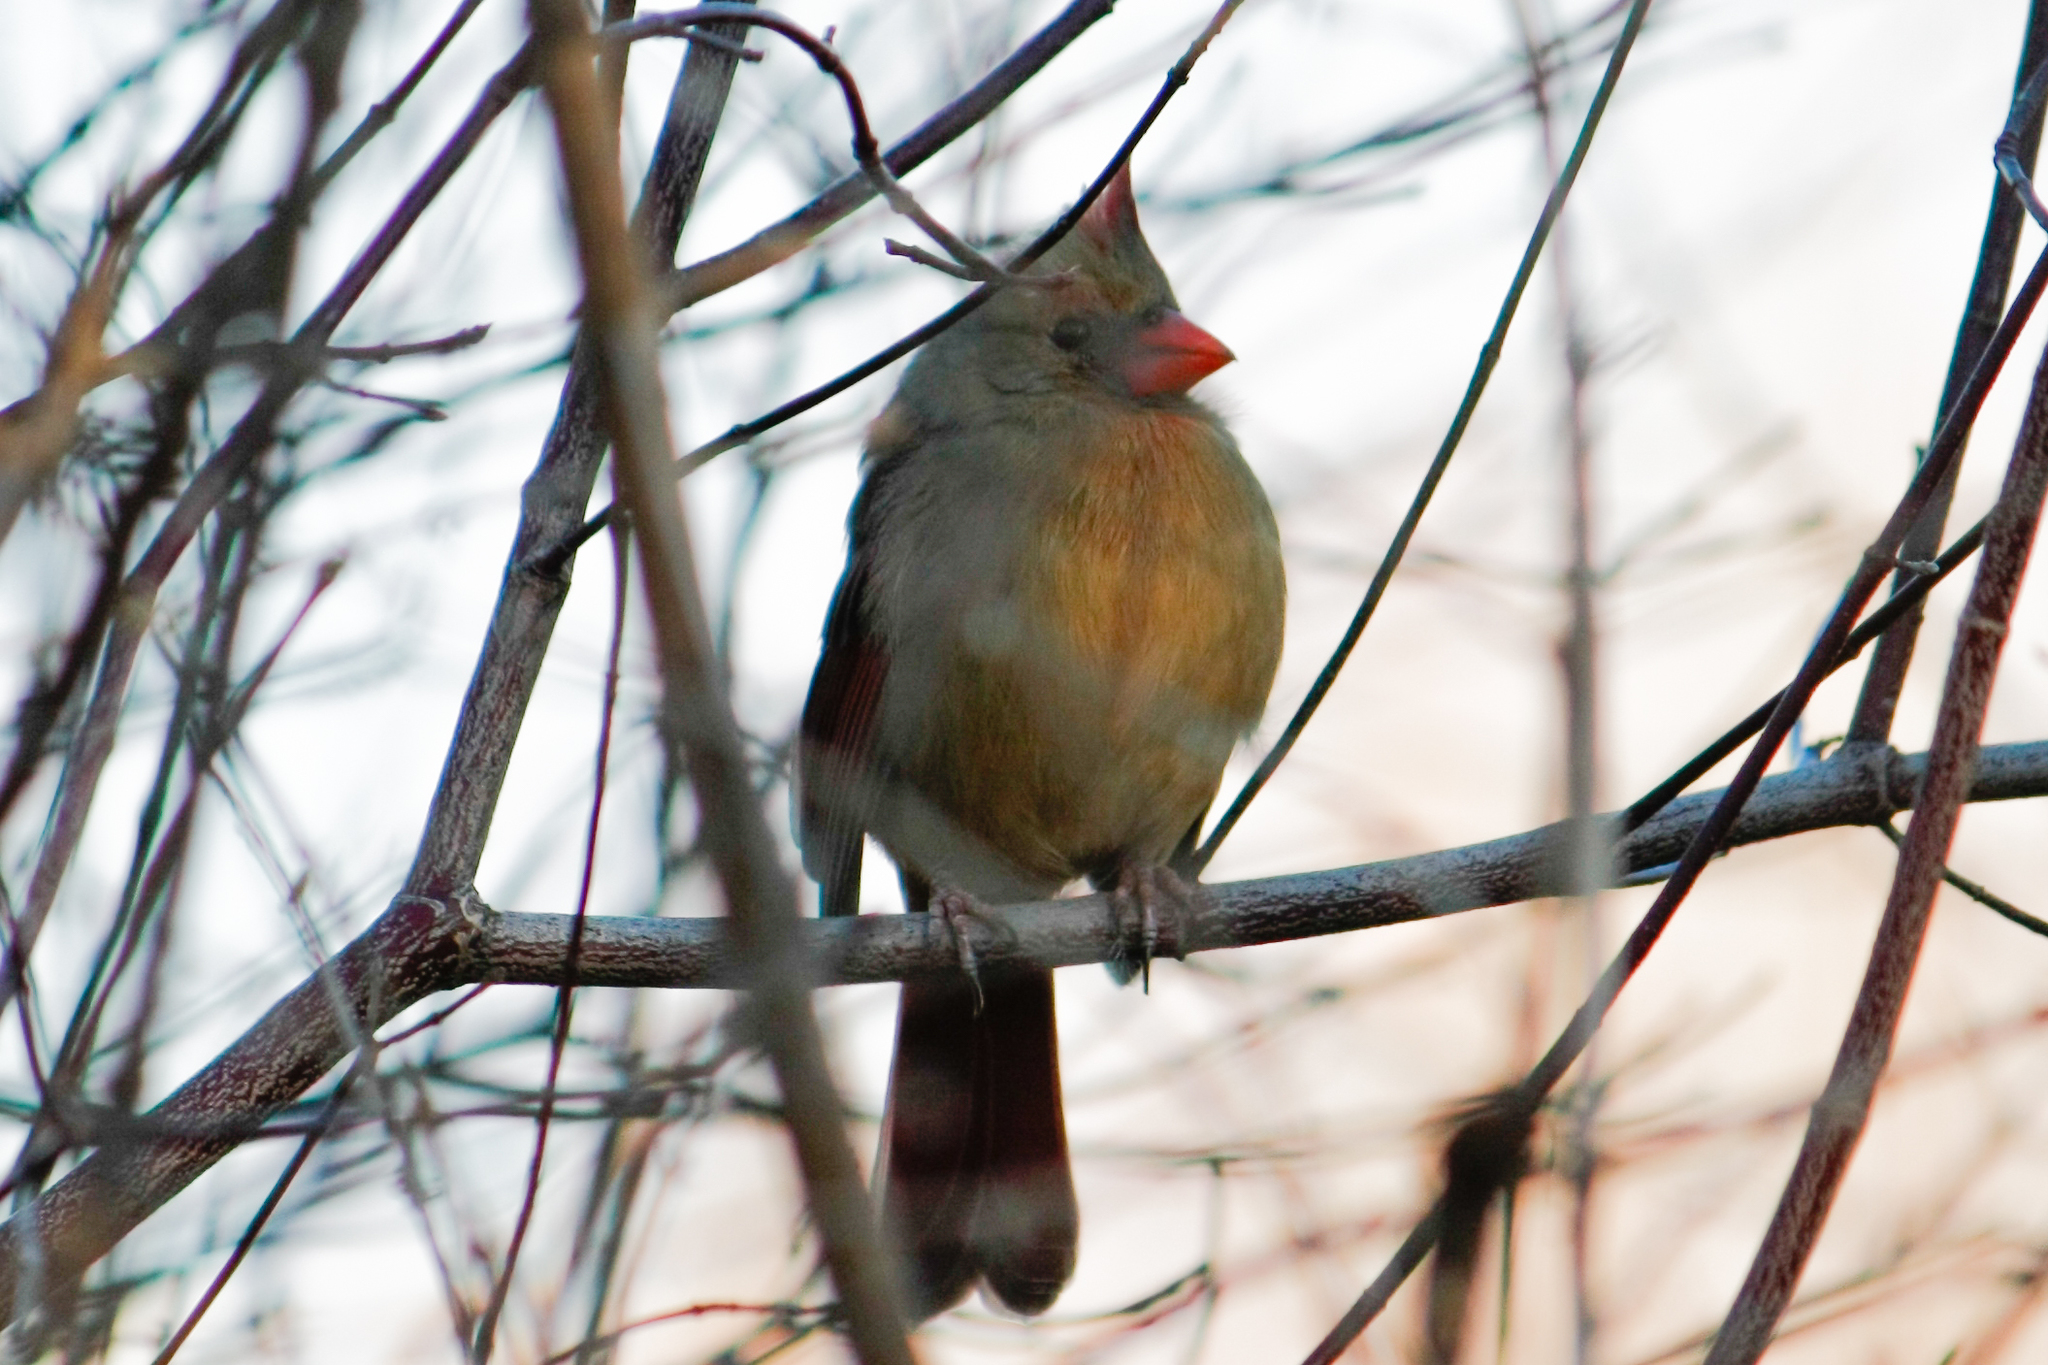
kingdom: Animalia
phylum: Chordata
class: Aves
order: Passeriformes
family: Cardinalidae
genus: Cardinalis
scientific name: Cardinalis cardinalis
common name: Northern cardinal
